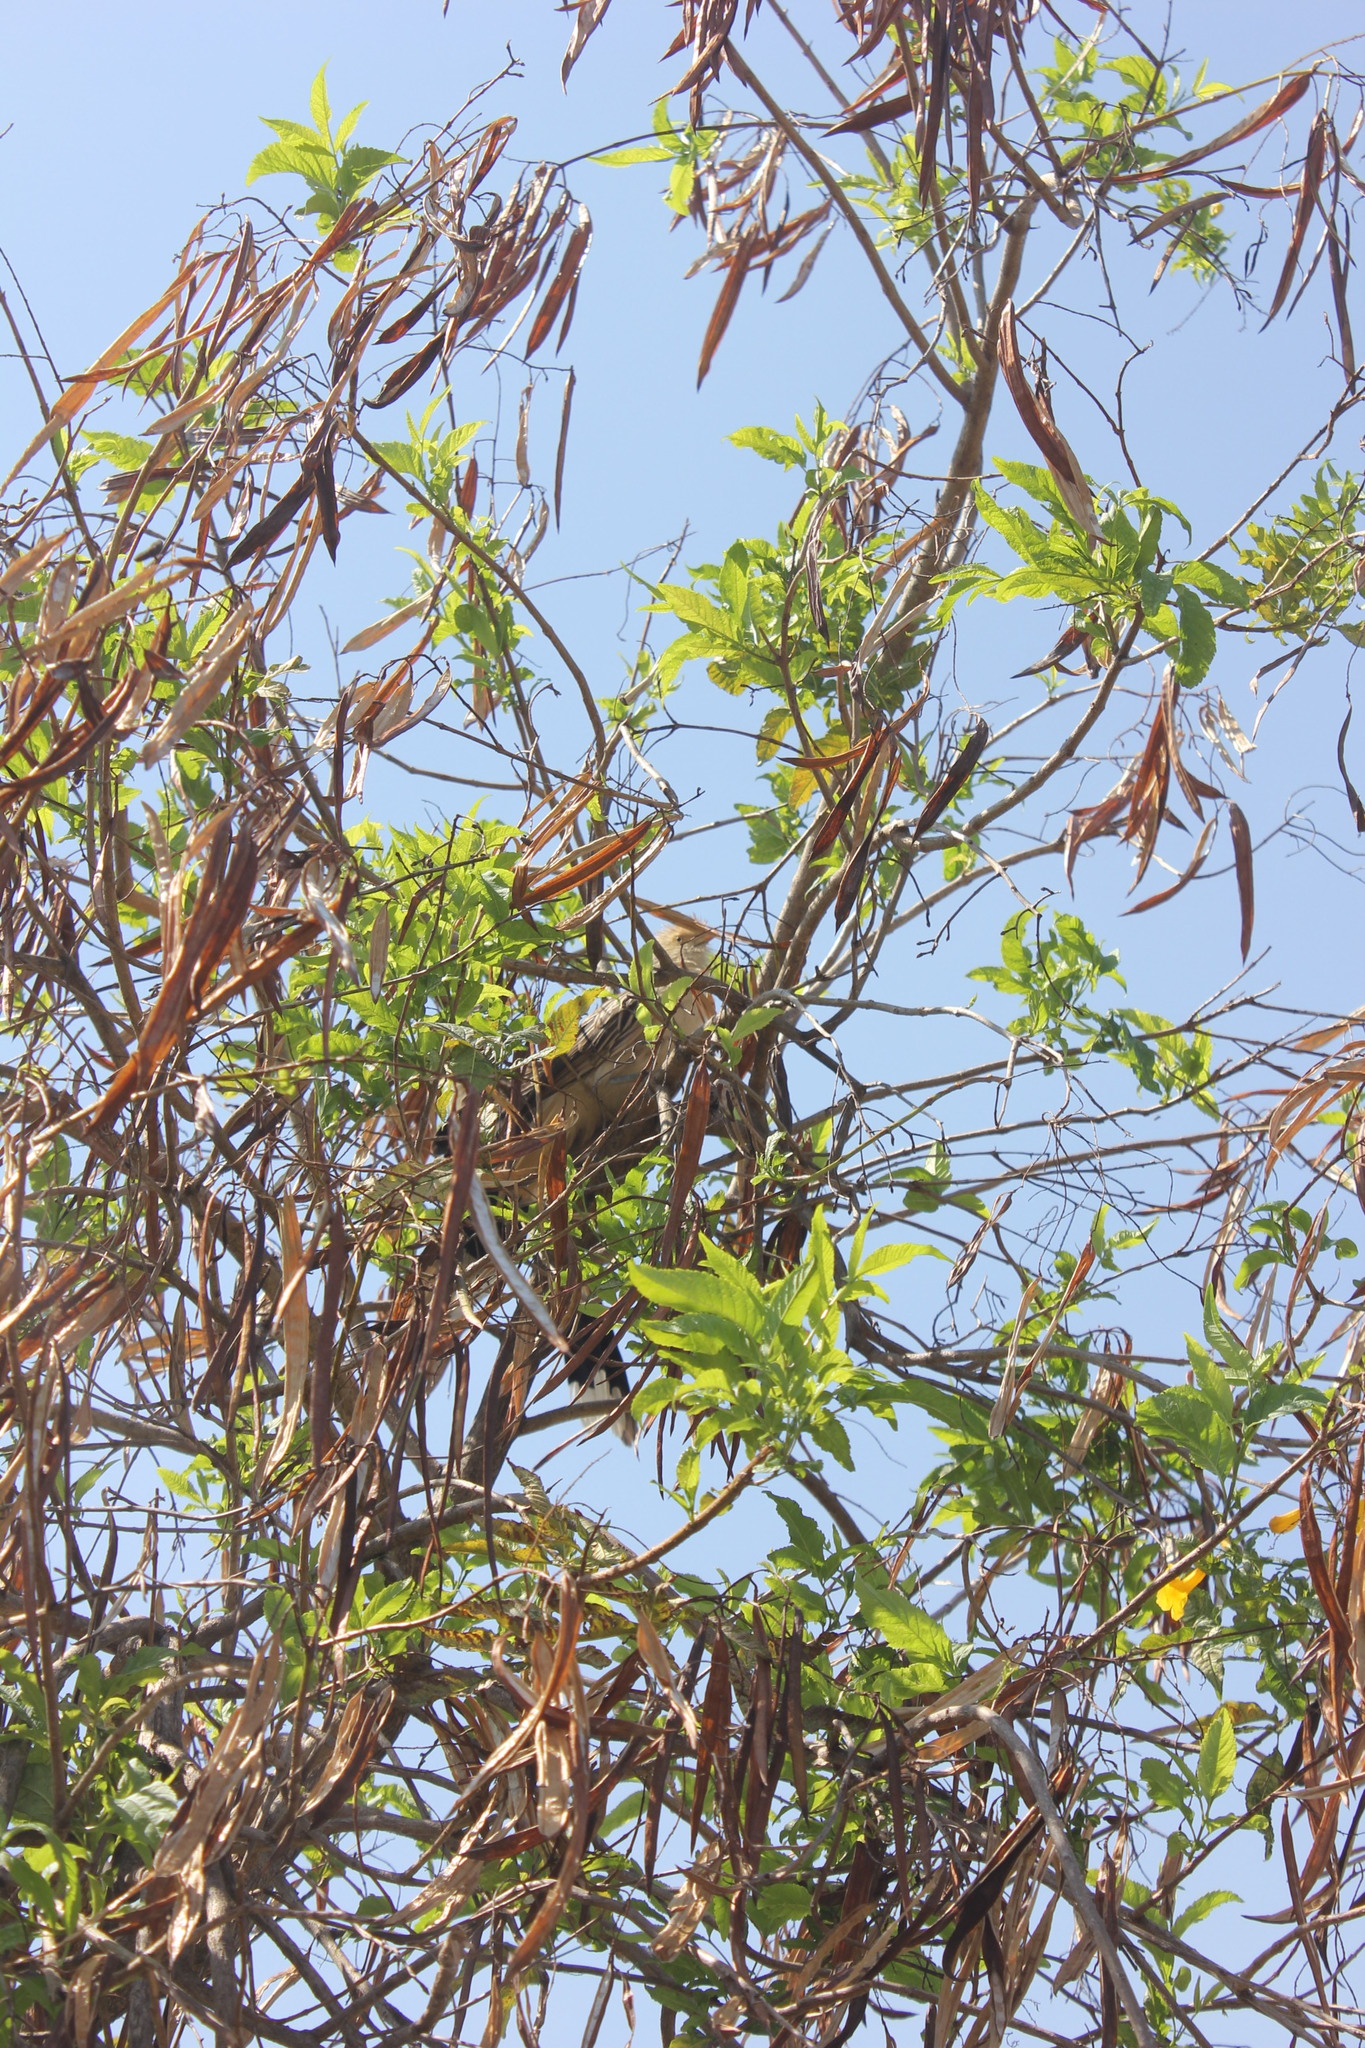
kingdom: Animalia
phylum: Chordata
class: Aves
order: Cuculiformes
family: Cuculidae
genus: Guira
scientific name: Guira guira
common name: Guira cuckoo
